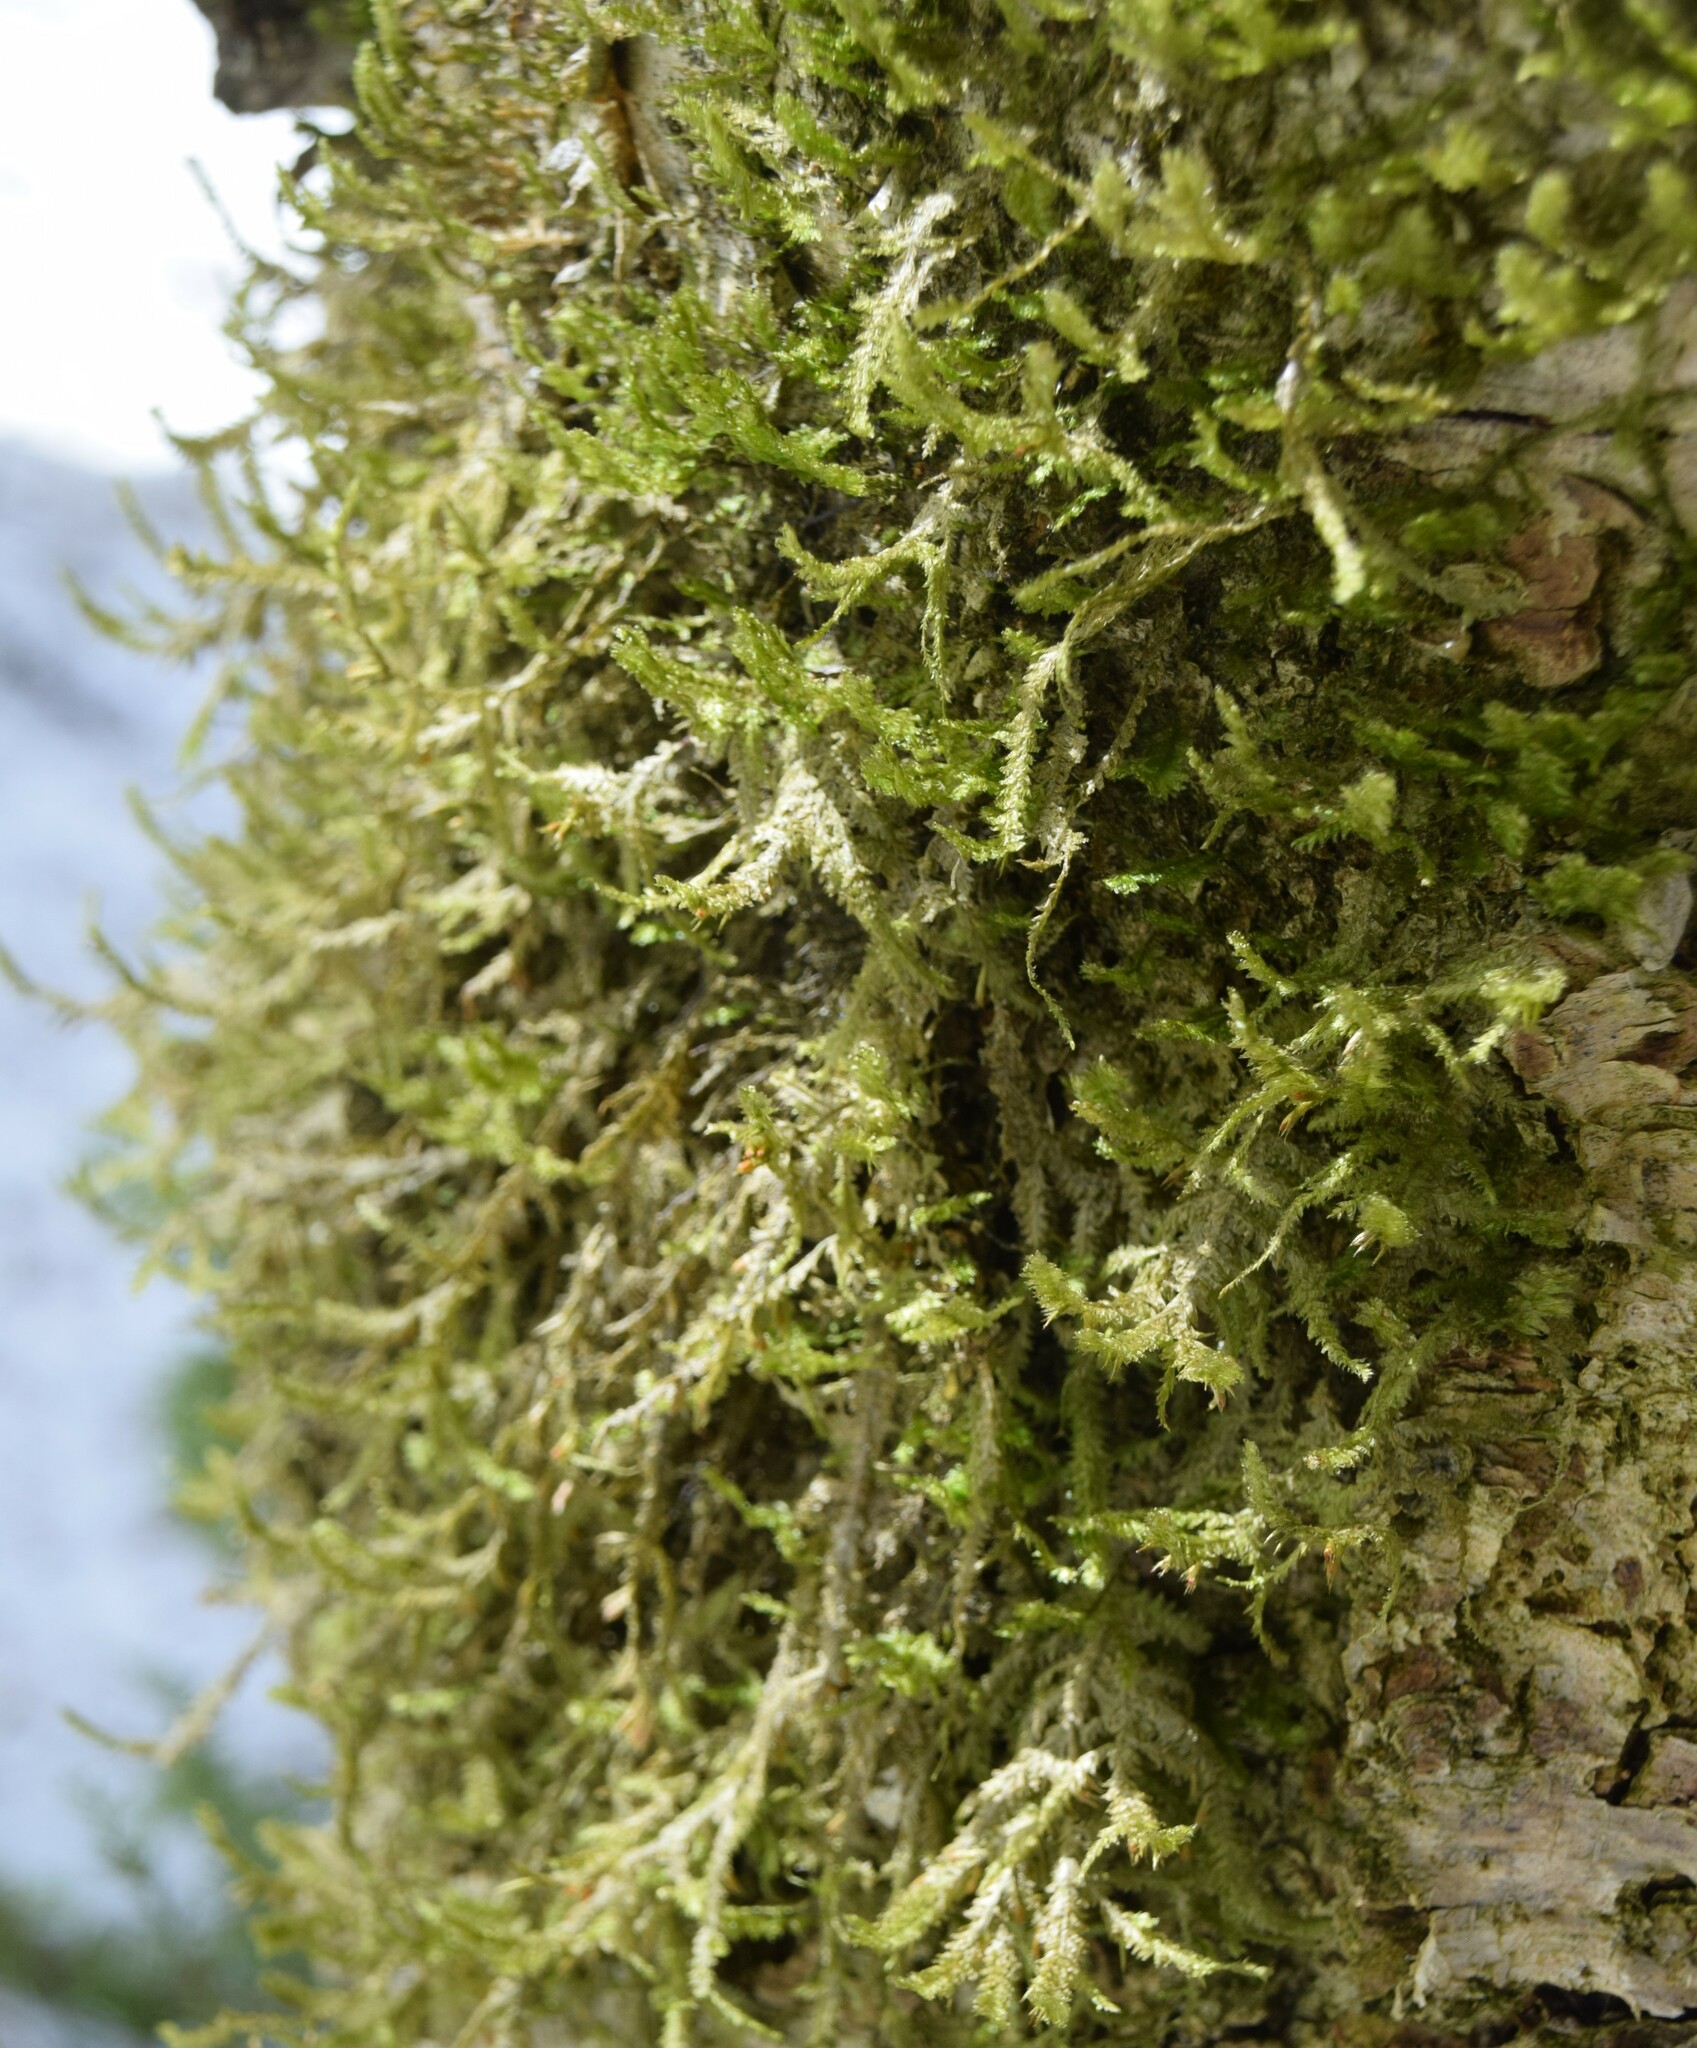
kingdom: Plantae
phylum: Bryophyta
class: Bryopsida
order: Hypnales
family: Neckeraceae
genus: Neckera
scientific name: Neckera pennata
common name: Feathery neckera
